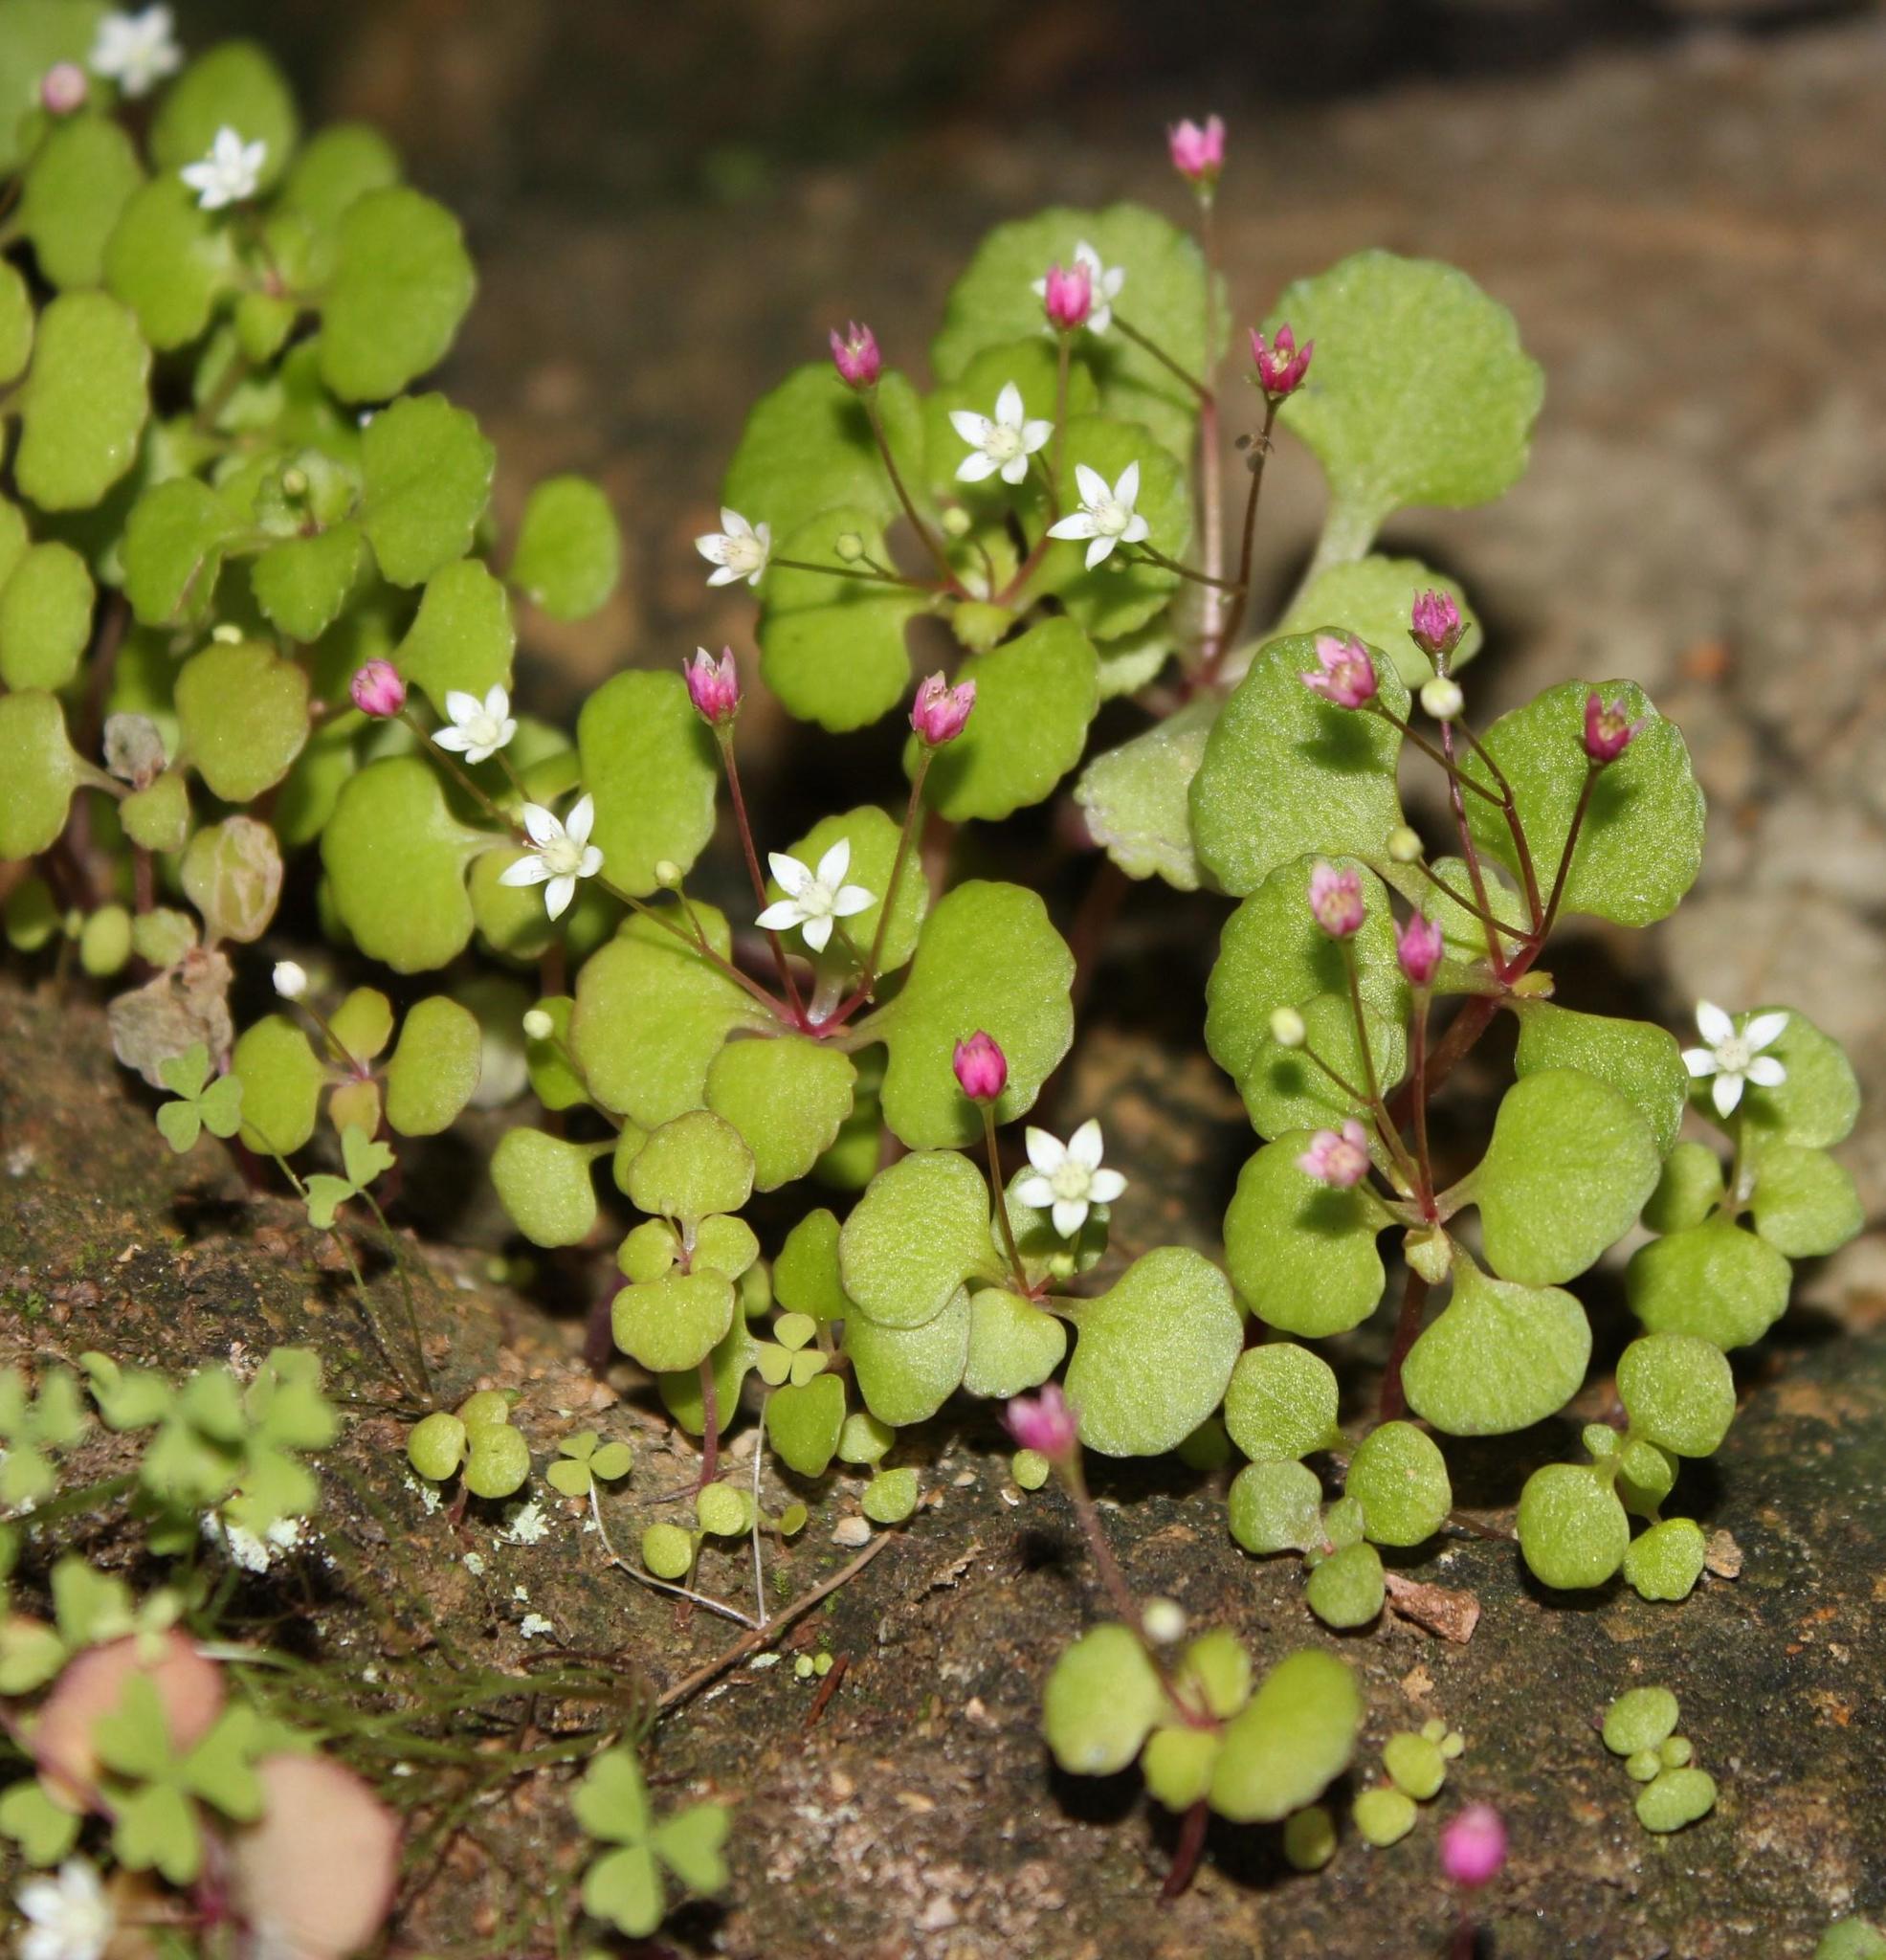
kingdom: Plantae
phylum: Tracheophyta
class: Magnoliopsida
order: Saxifragales
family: Crassulaceae
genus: Crassula
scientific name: Crassula capensis
